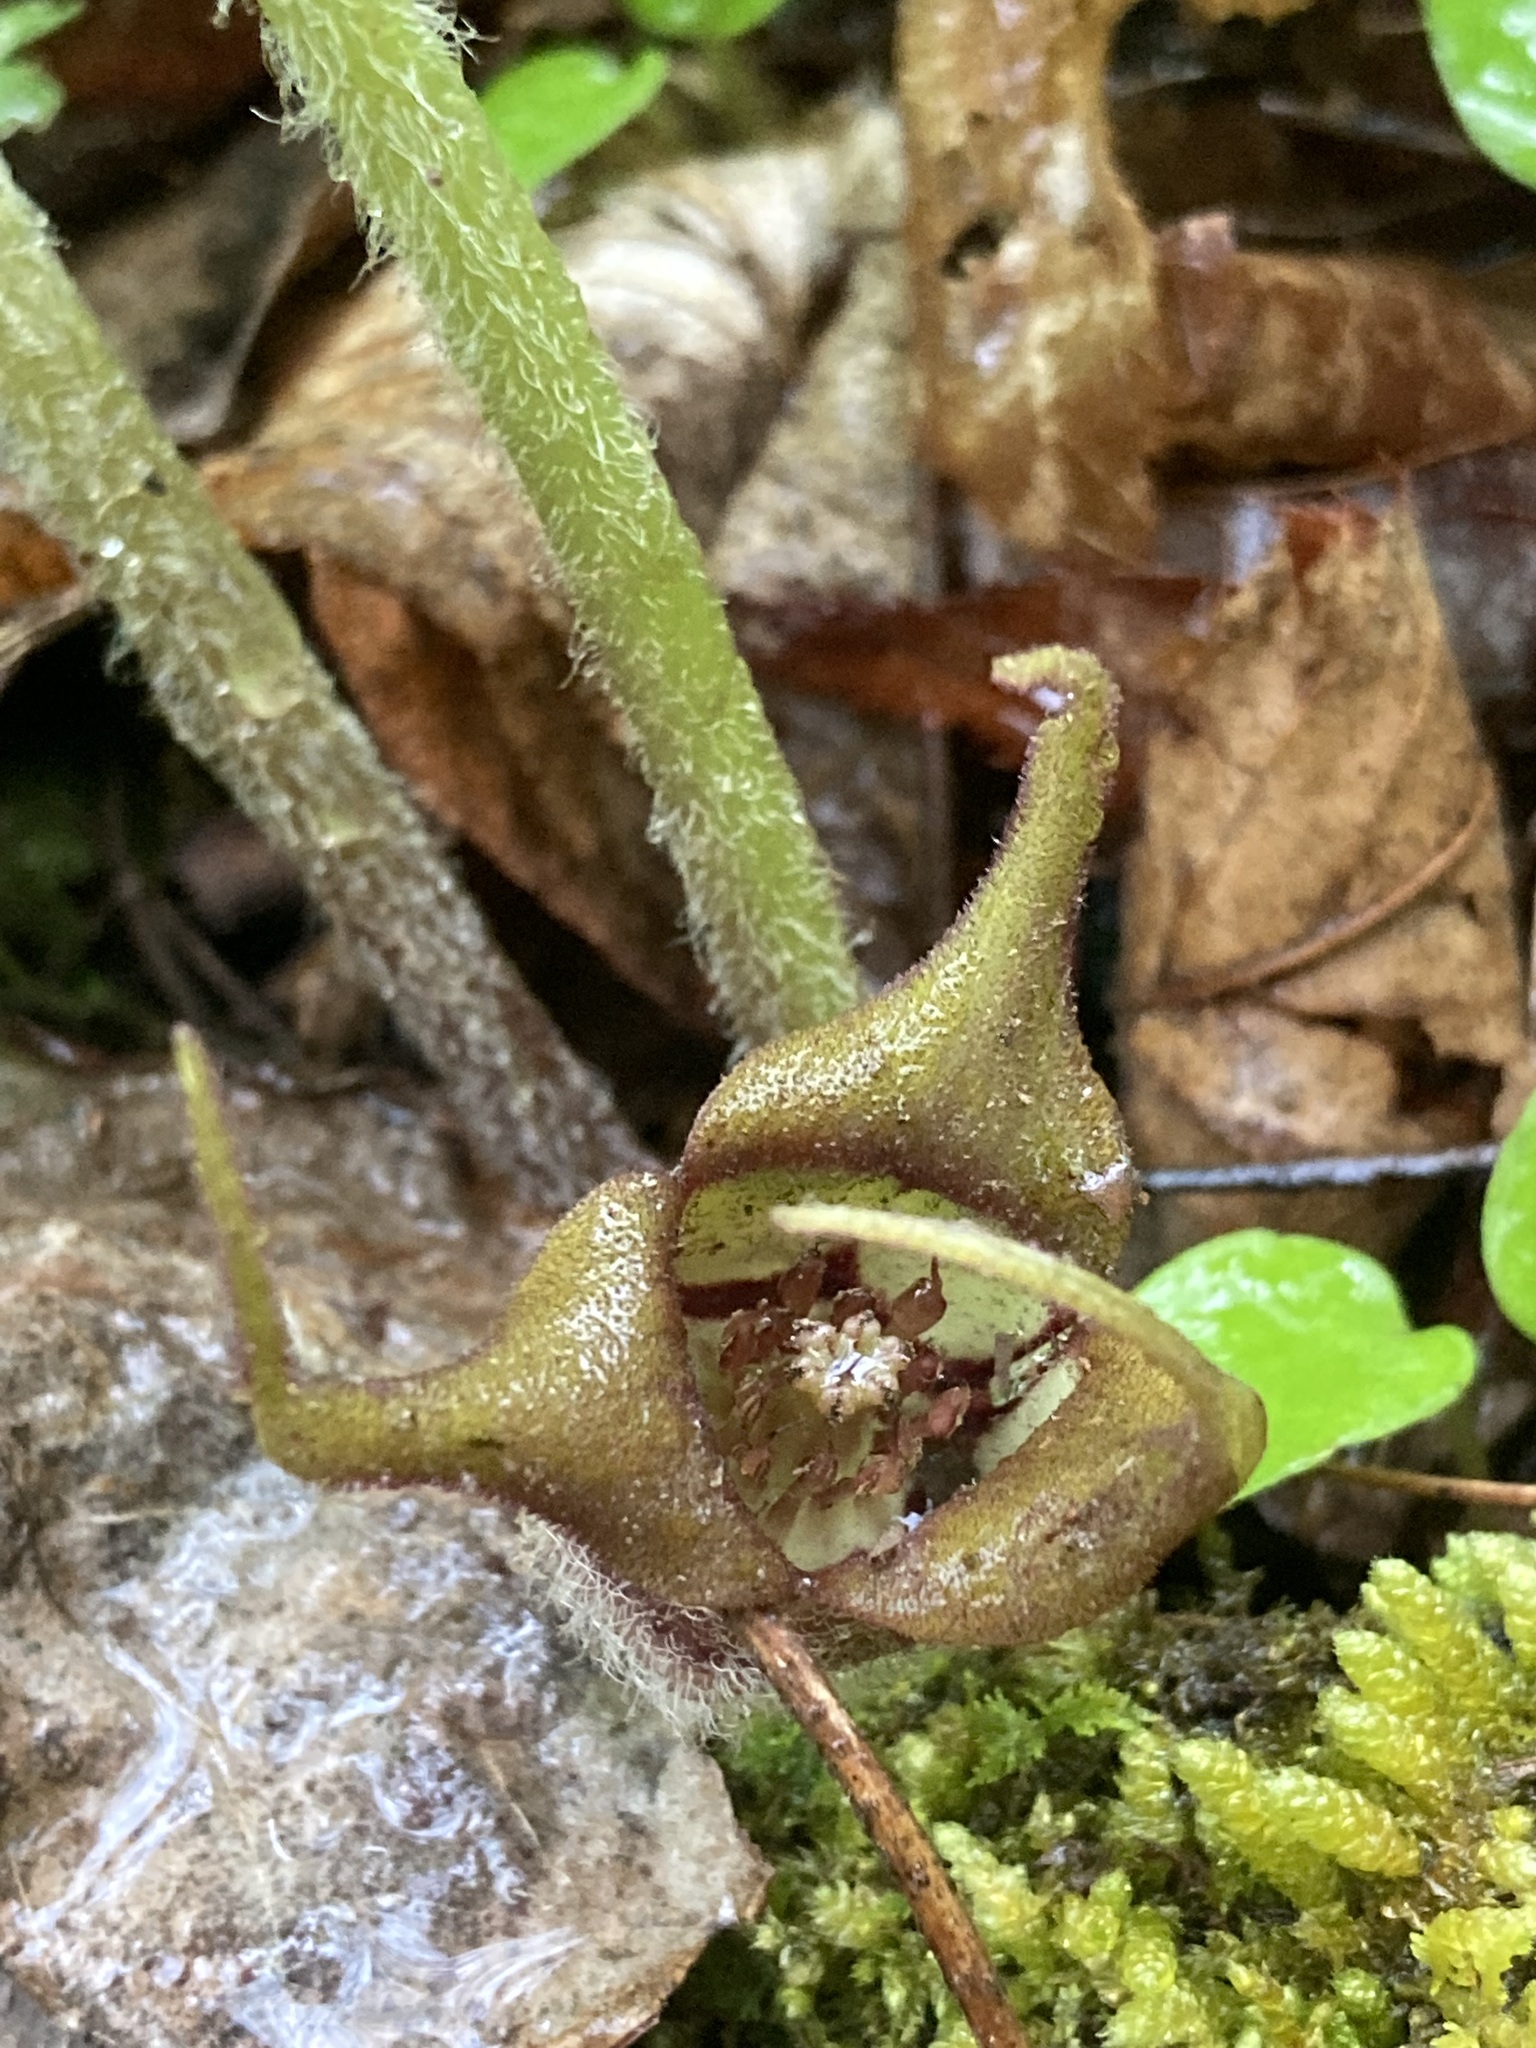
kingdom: Plantae
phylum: Tracheophyta
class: Magnoliopsida
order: Piperales
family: Aristolochiaceae
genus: Asarum
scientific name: Asarum canadense
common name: Wild ginger
